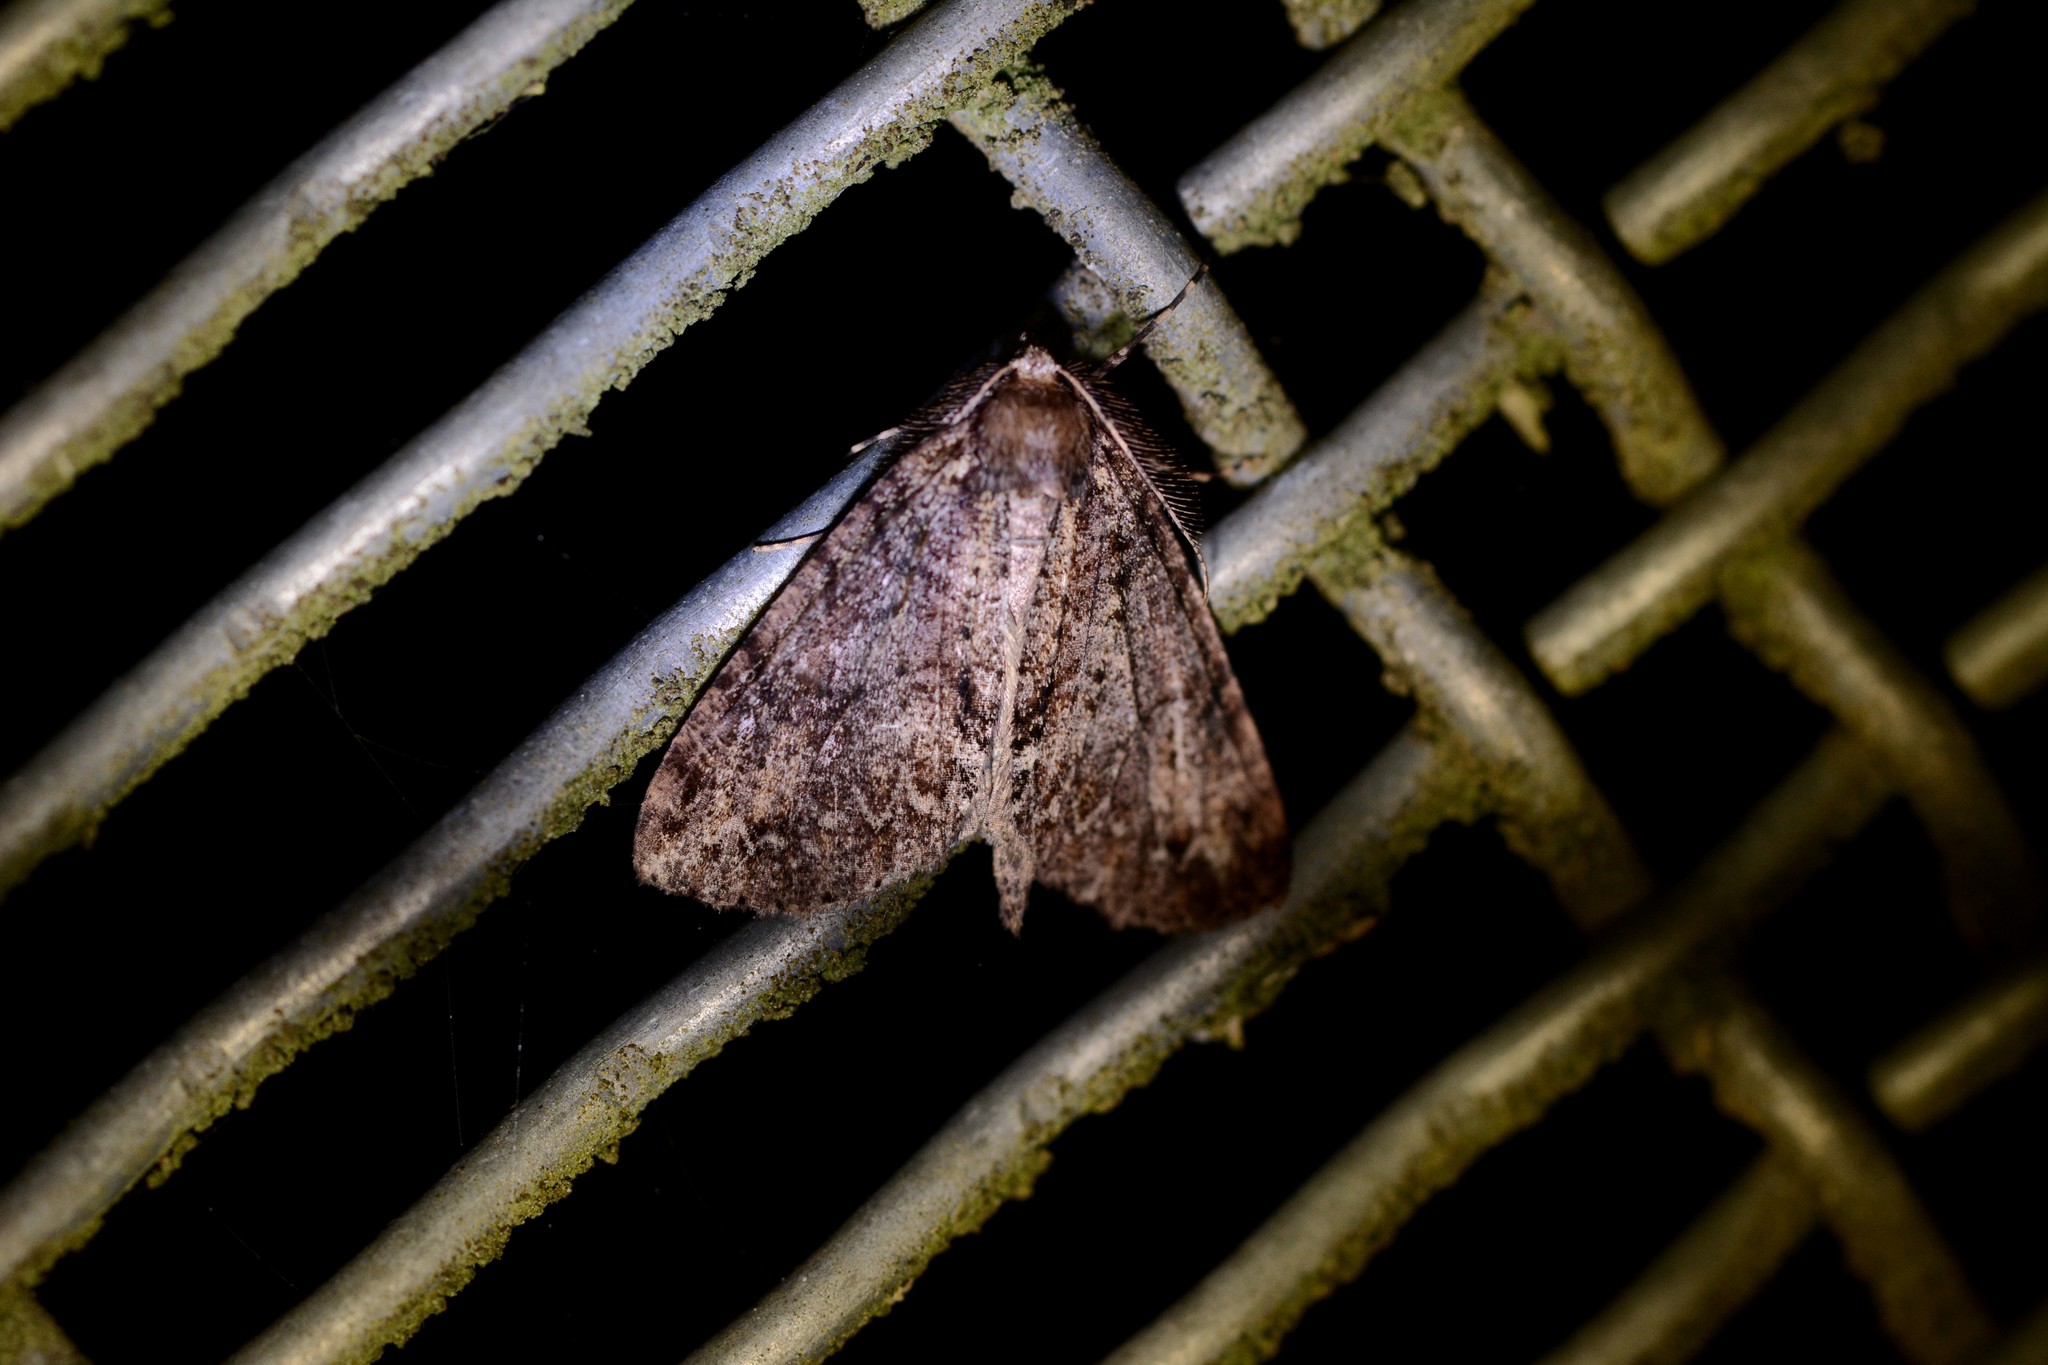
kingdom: Animalia
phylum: Arthropoda
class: Insecta
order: Lepidoptera
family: Geometridae
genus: Pseudocoremia
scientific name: Pseudocoremia suavis
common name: Common forest looper
